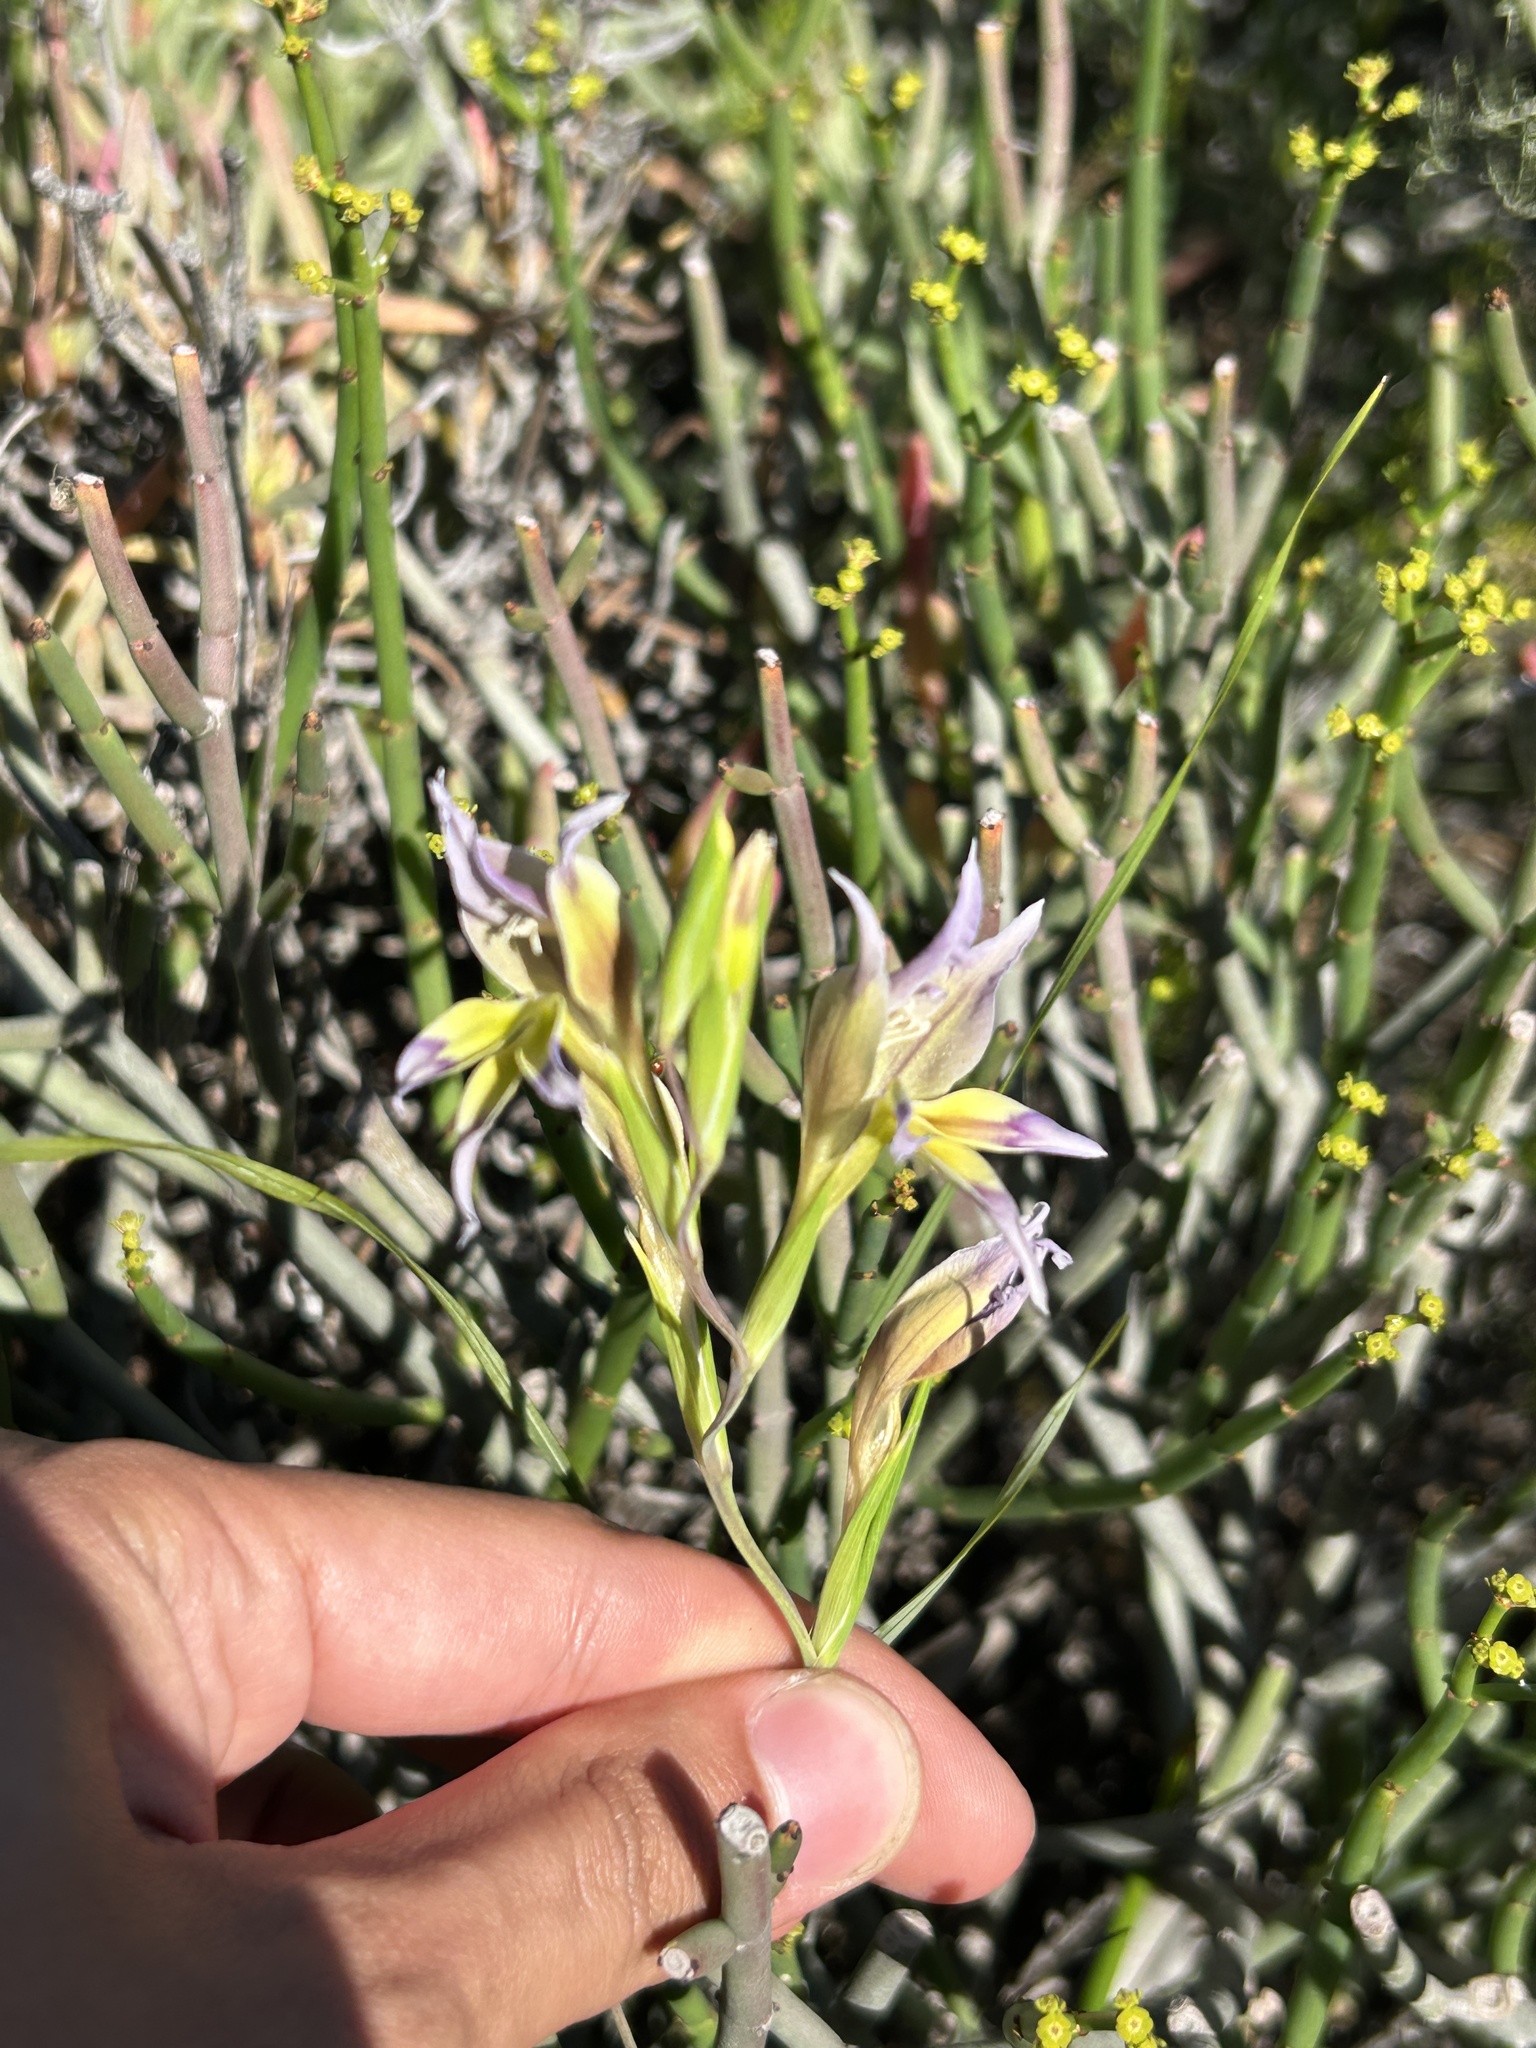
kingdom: Plantae
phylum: Tracheophyta
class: Liliopsida
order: Asparagales
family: Iridaceae
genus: Gladiolus
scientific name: Gladiolus venustus
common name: Purple kalkoentjie
